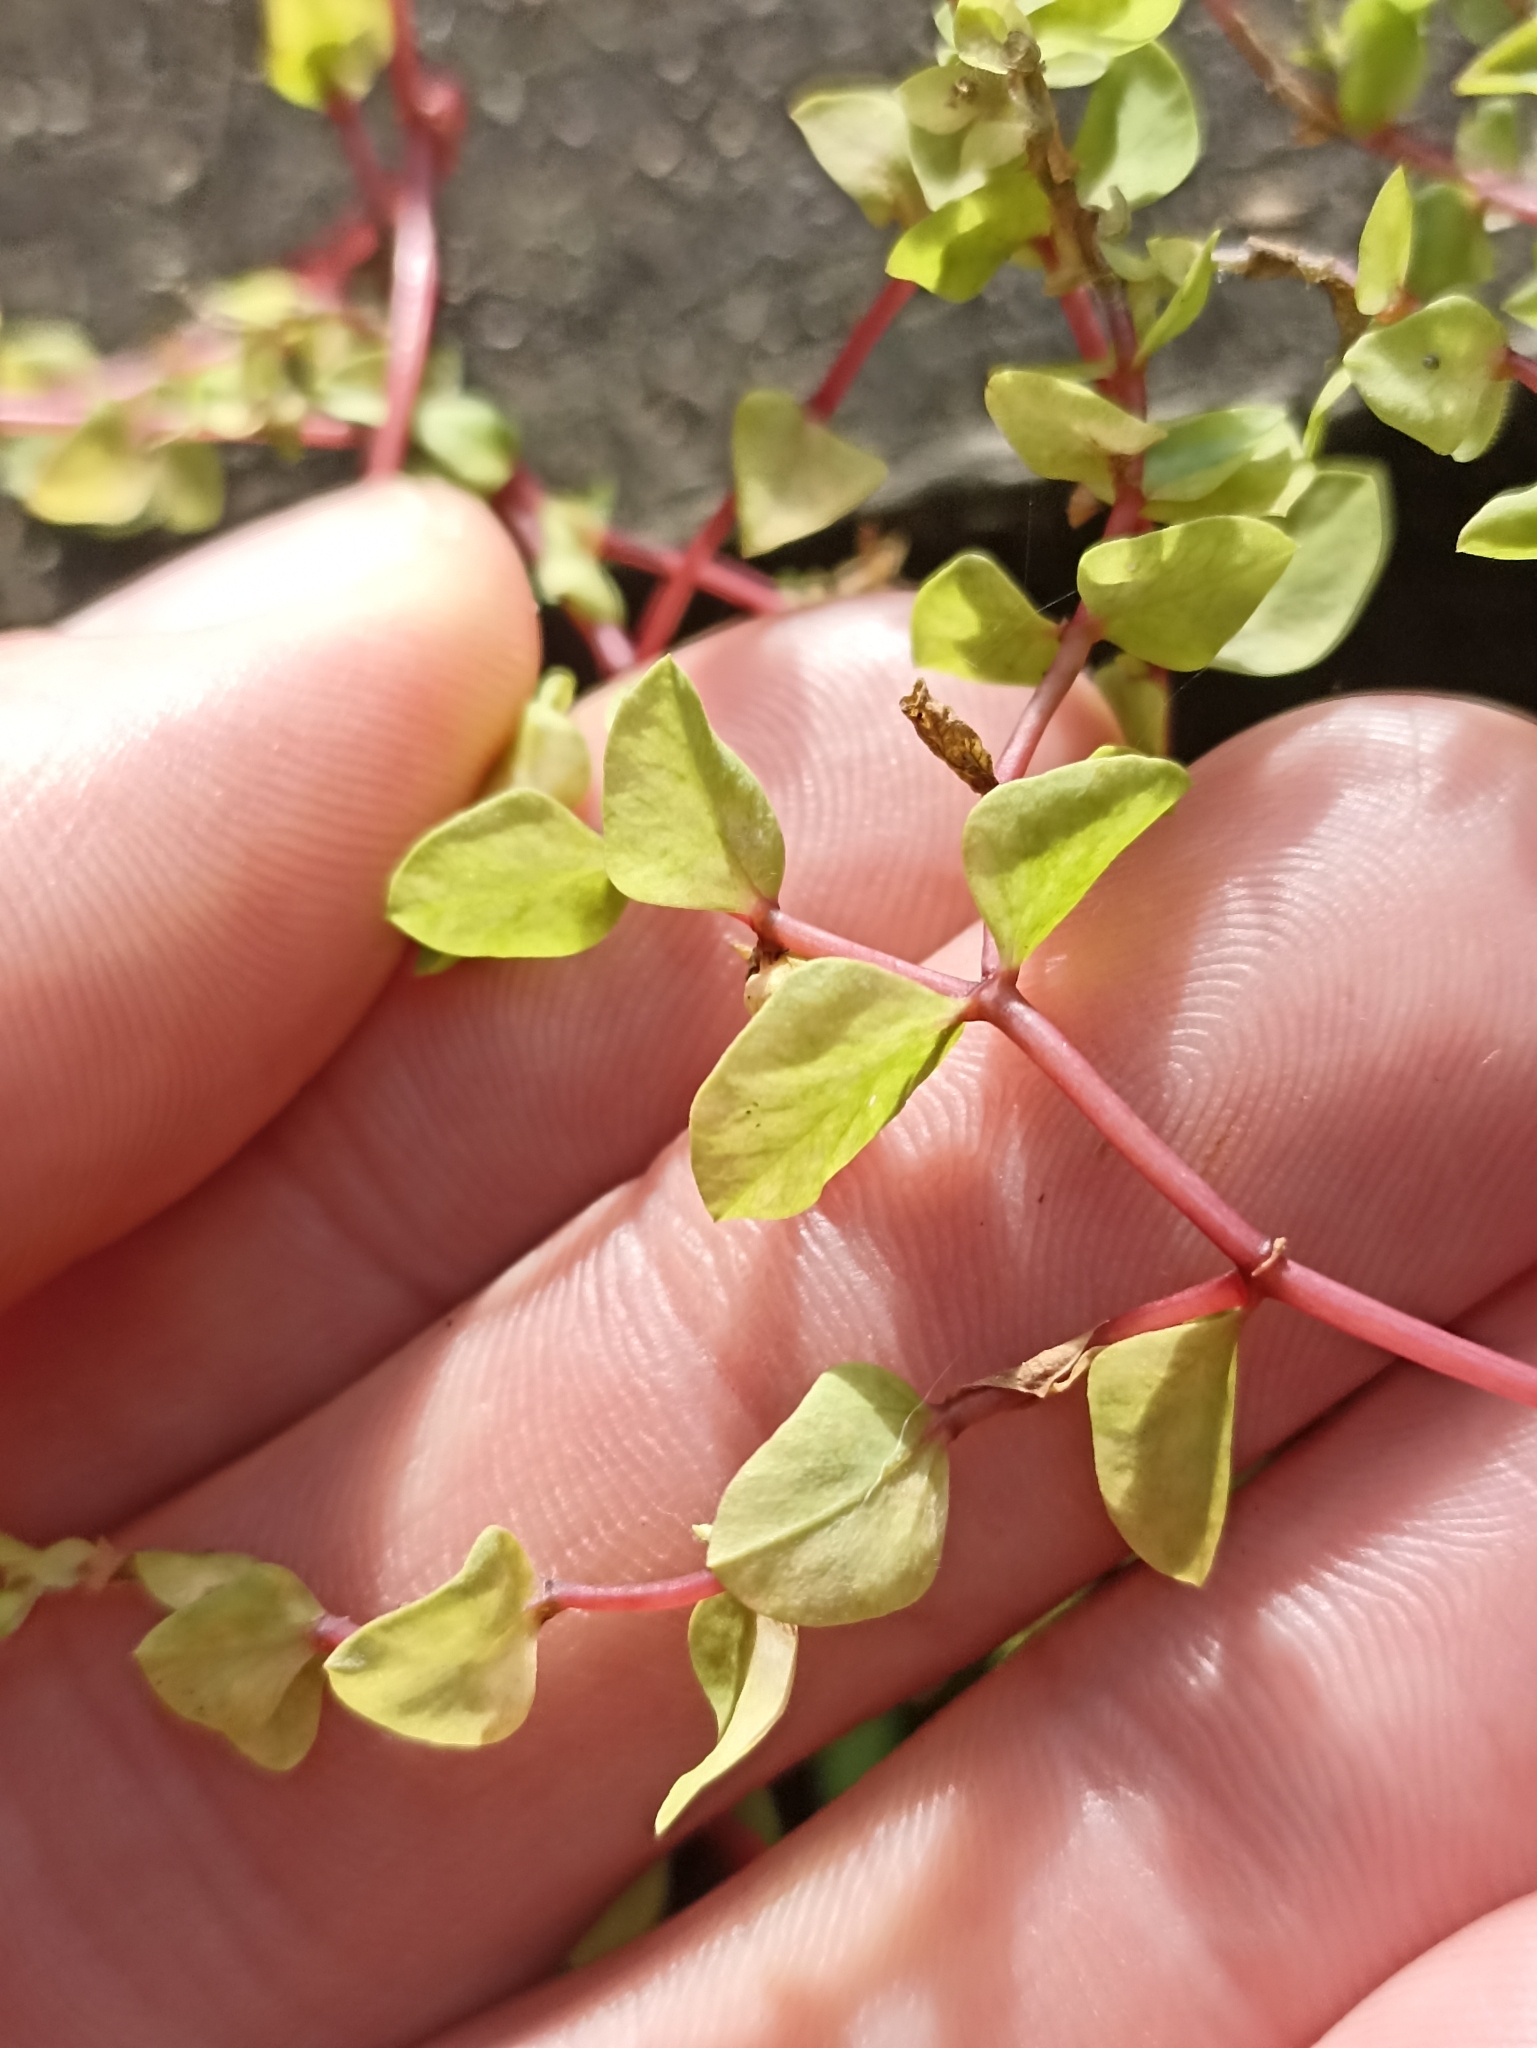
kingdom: Plantae
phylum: Tracheophyta
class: Magnoliopsida
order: Caryophyllales
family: Polygonaceae
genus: Rumex
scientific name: Rumex sagittatus
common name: Climbing dock
